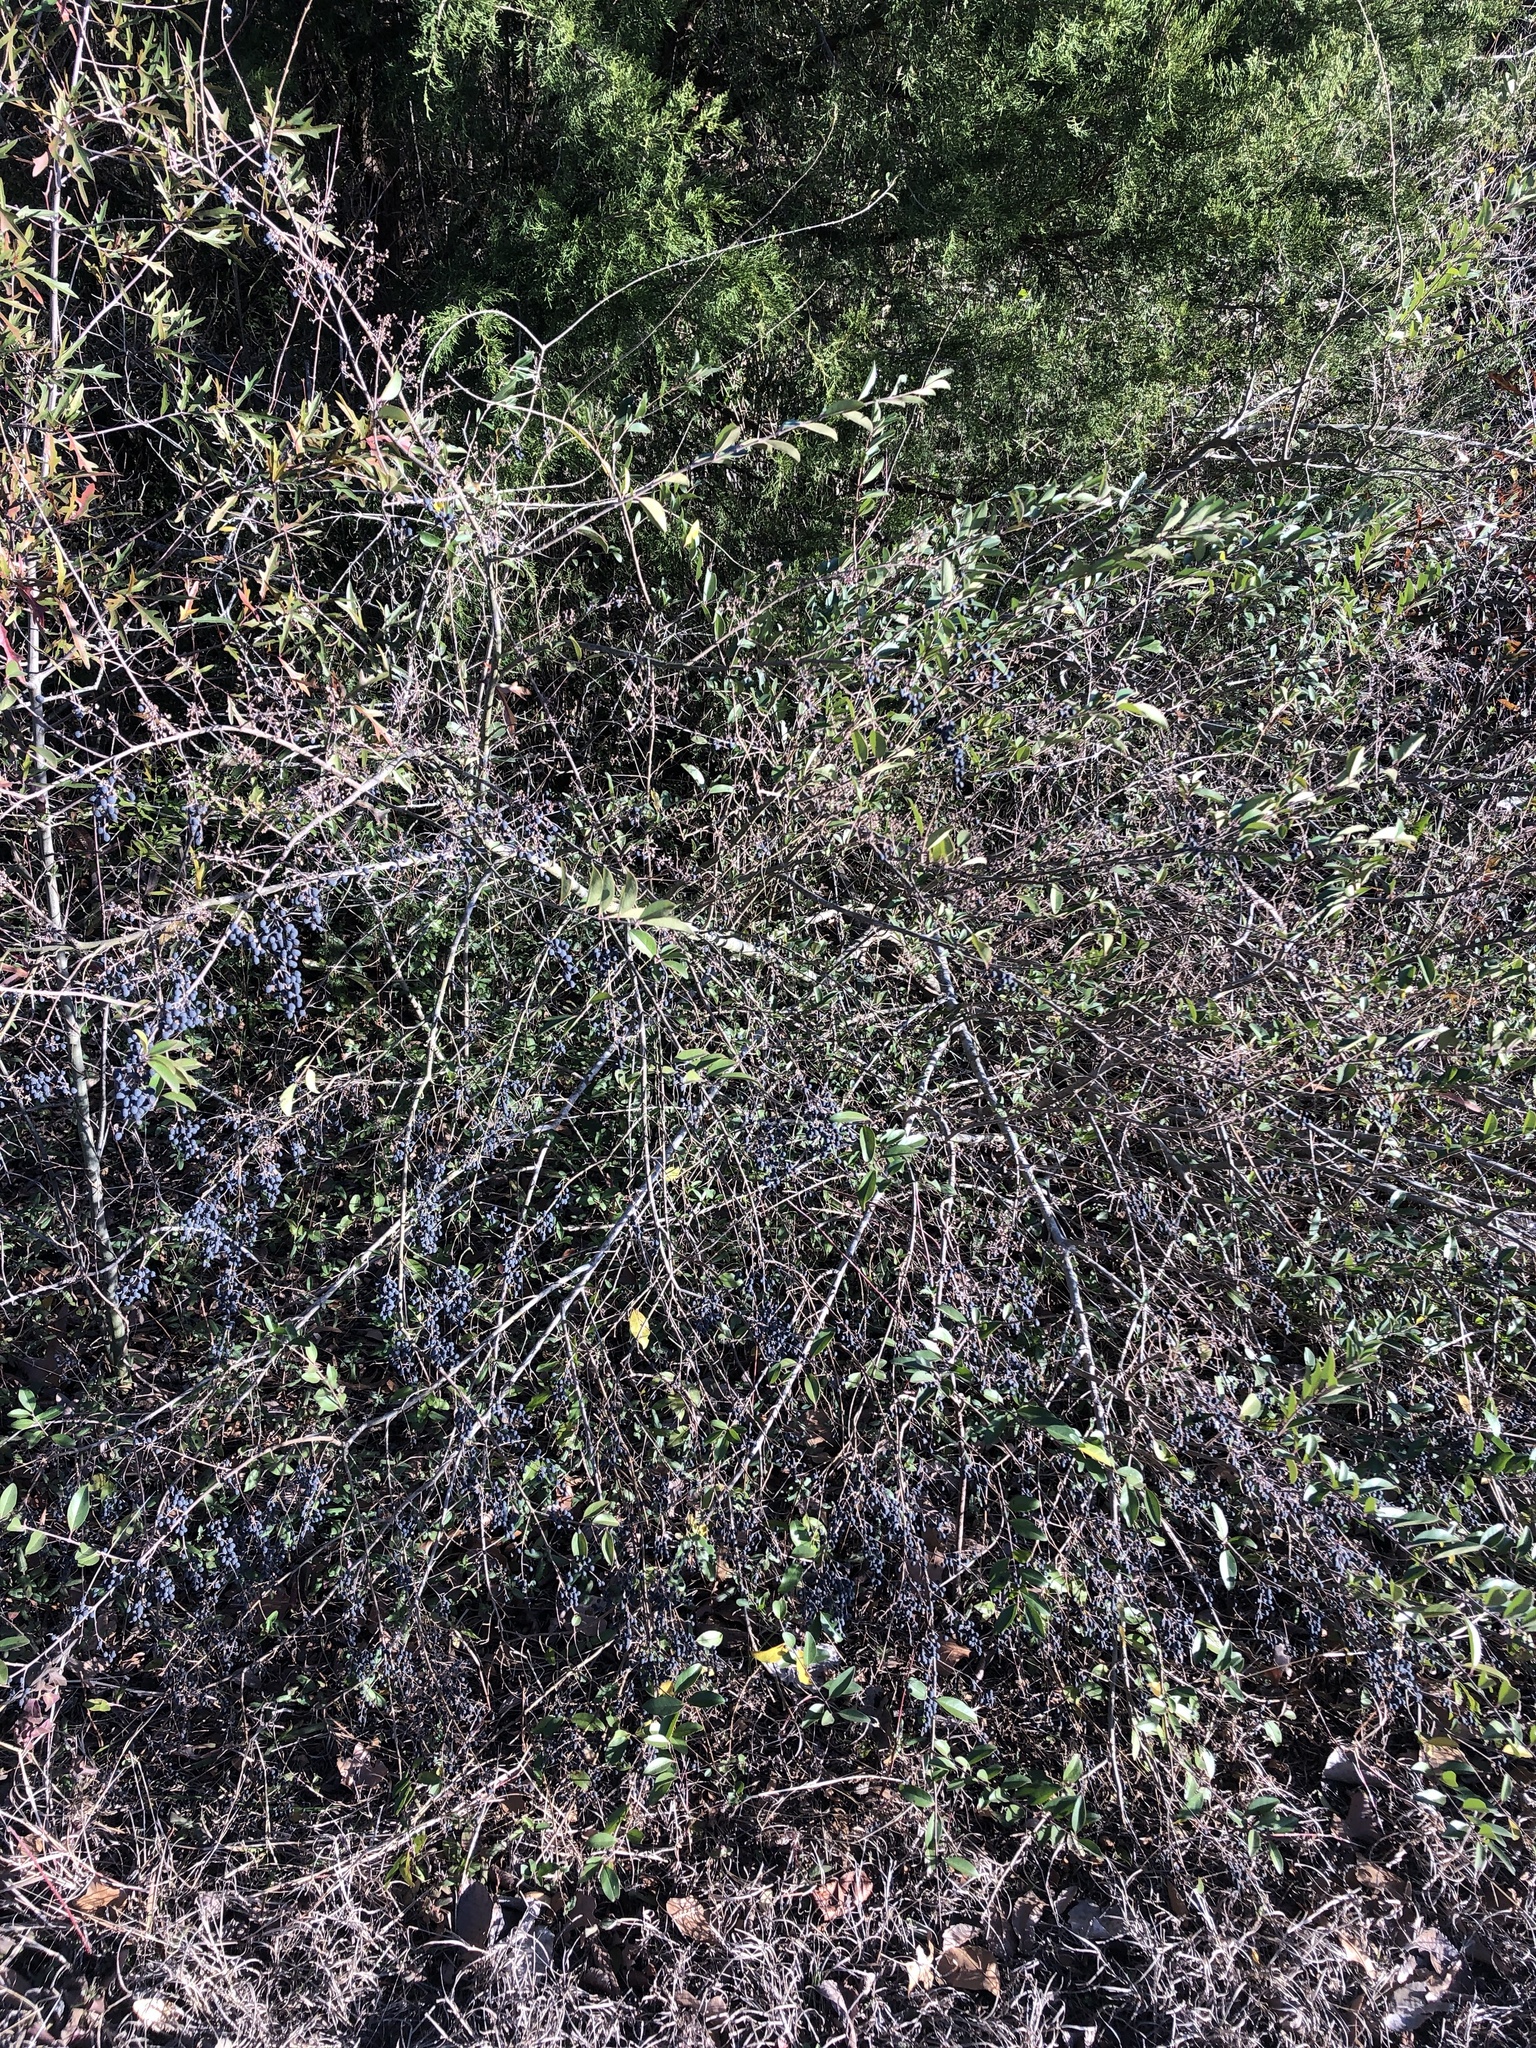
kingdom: Plantae
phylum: Tracheophyta
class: Magnoliopsida
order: Lamiales
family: Oleaceae
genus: Ligustrum
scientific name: Ligustrum sinense
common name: Chinese privet
